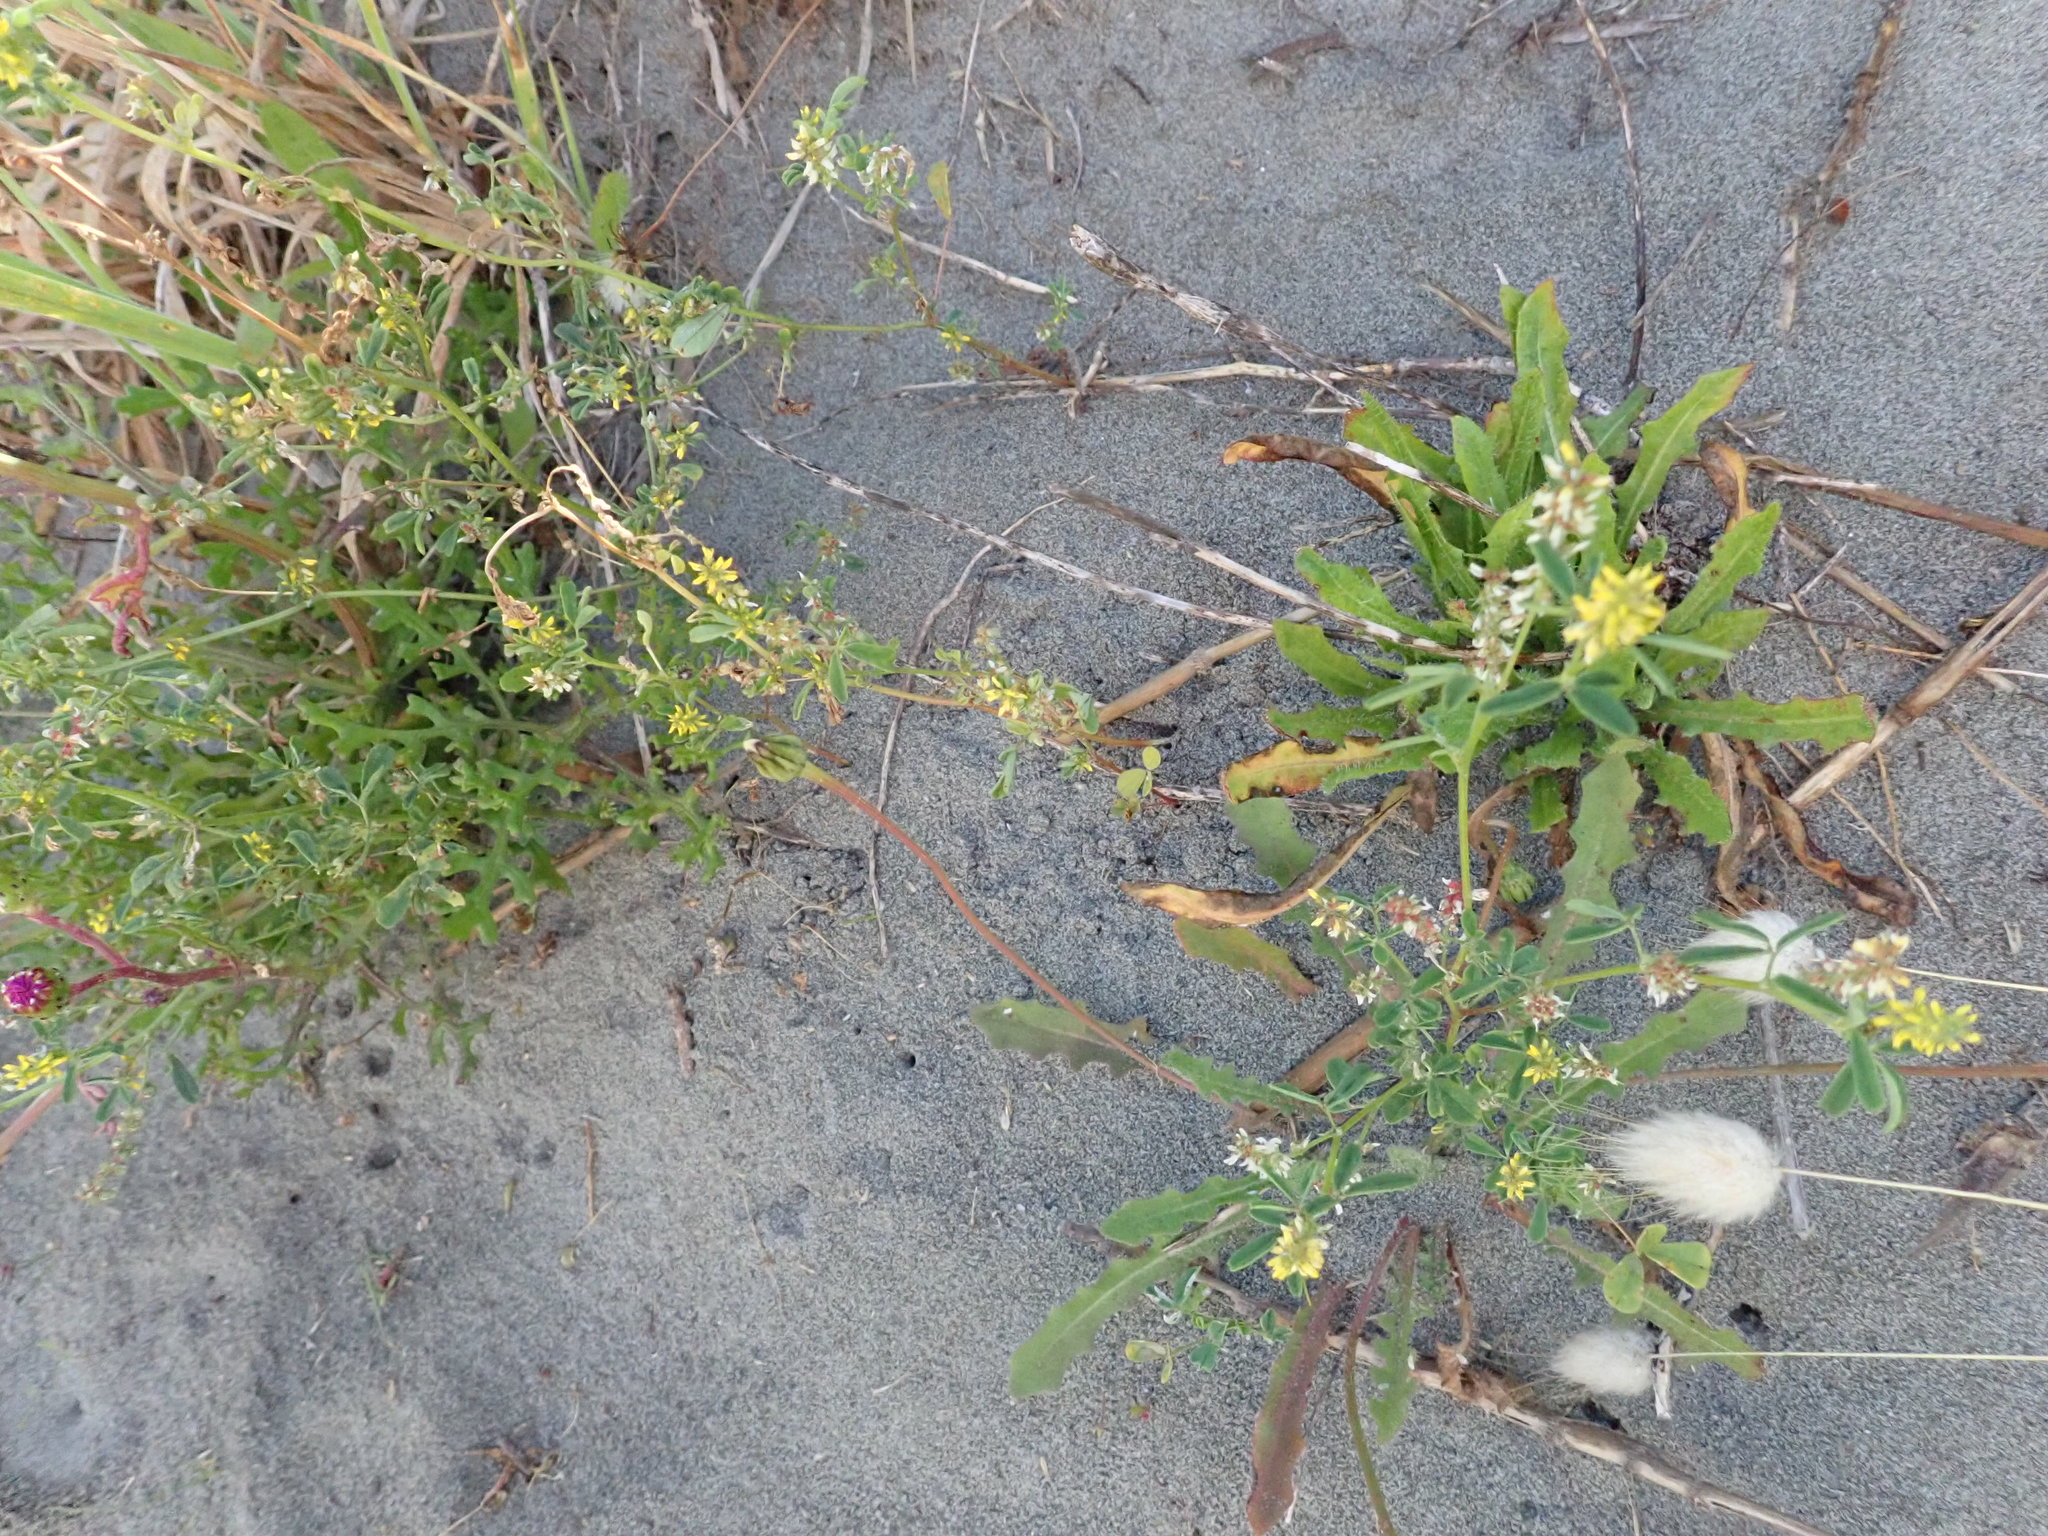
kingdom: Plantae
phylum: Tracheophyta
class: Magnoliopsida
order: Fabales
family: Fabaceae
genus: Melilotus
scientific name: Melilotus indicus
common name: Small melilot
